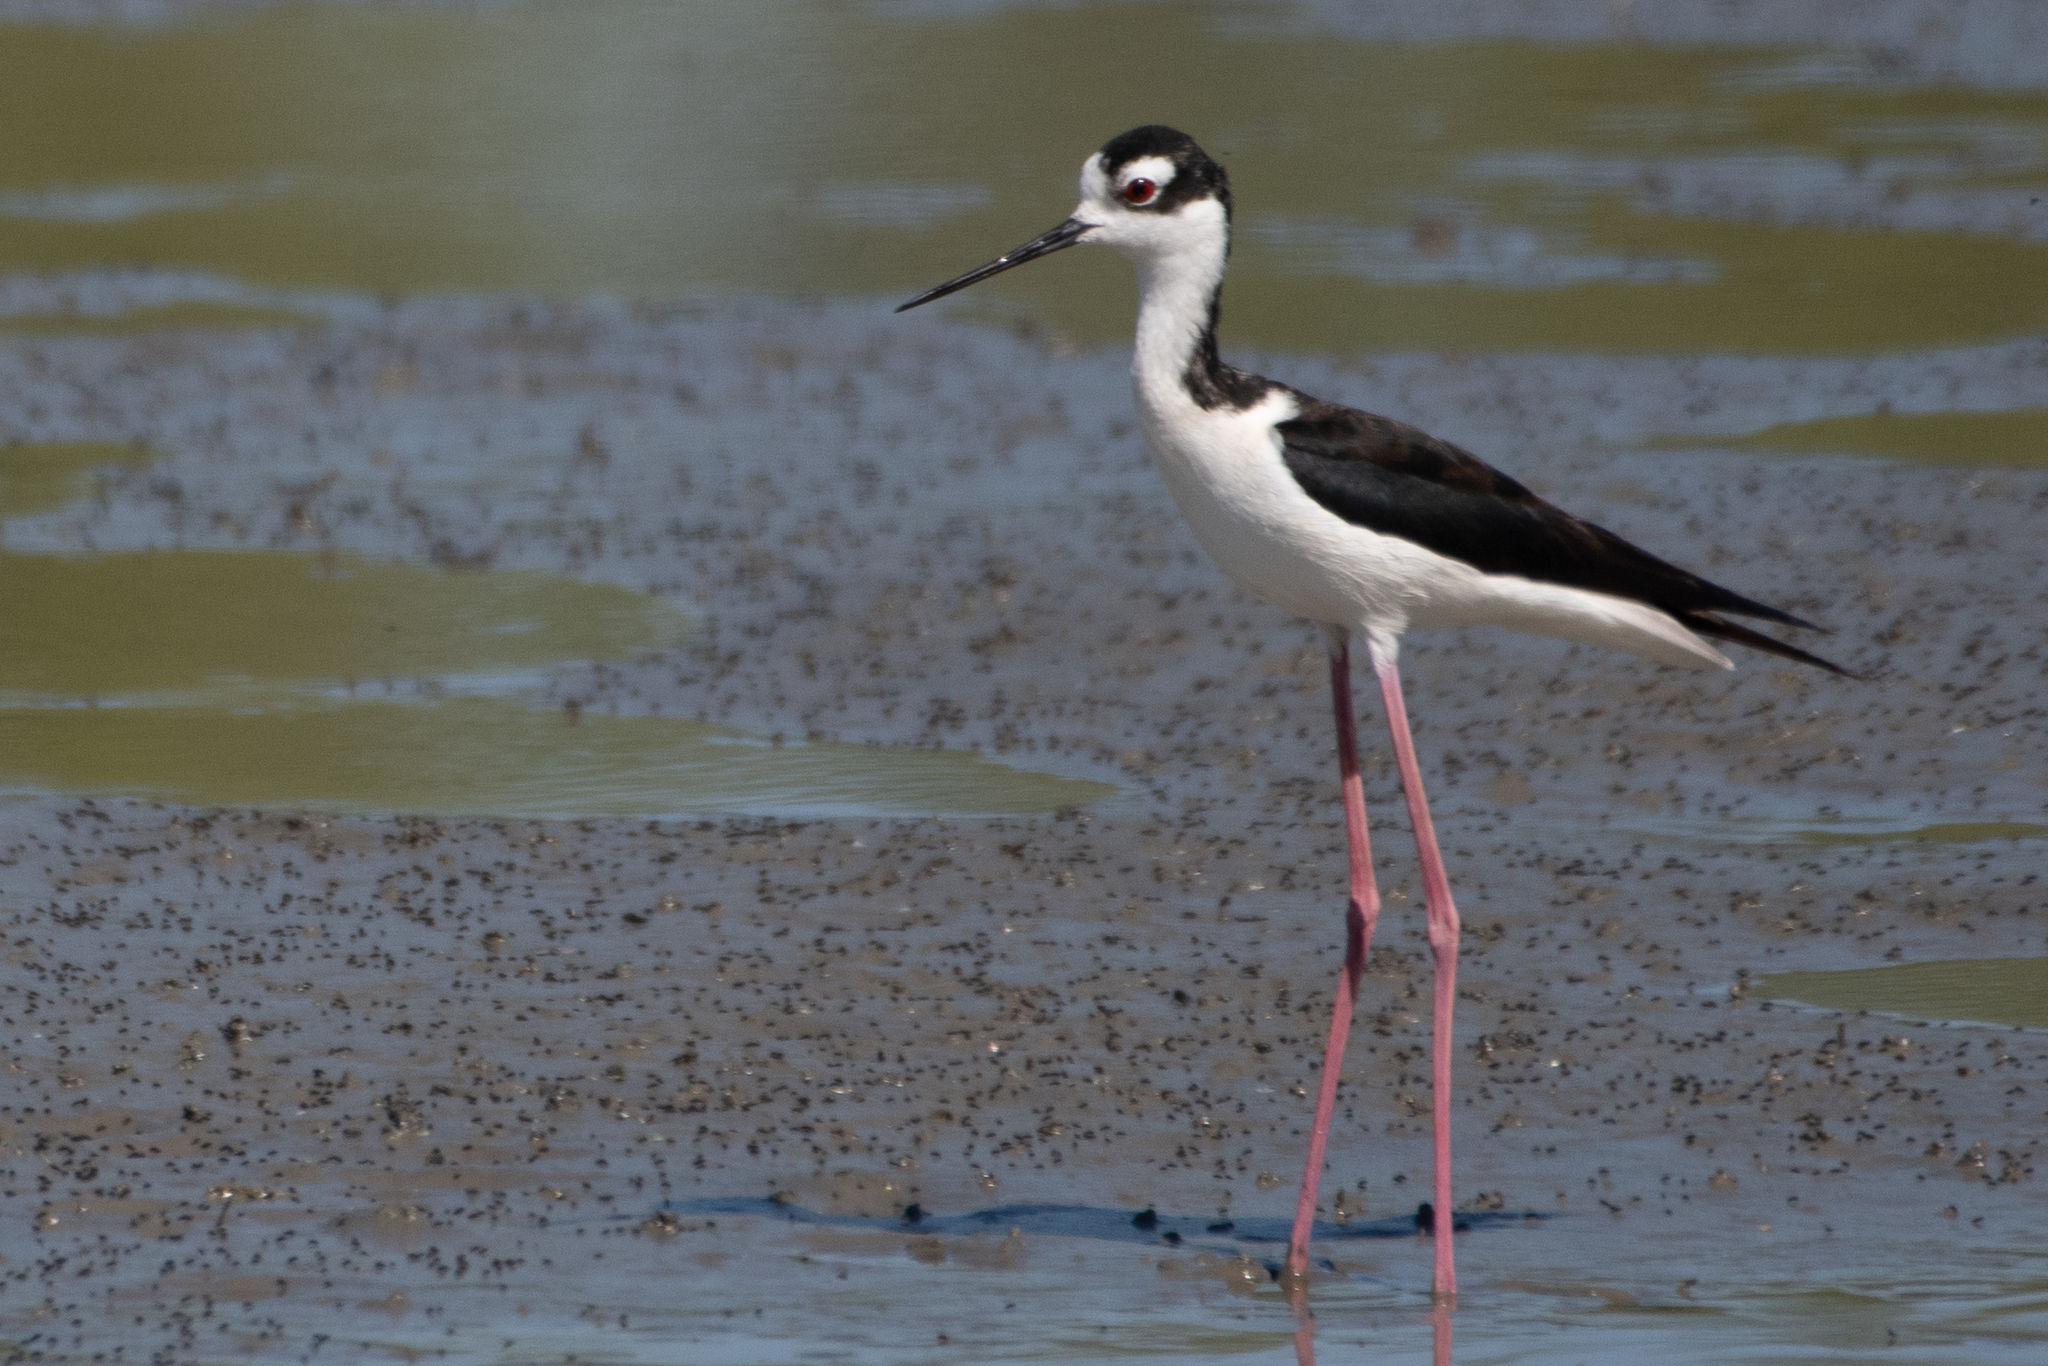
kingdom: Animalia
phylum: Chordata
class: Aves
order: Charadriiformes
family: Recurvirostridae
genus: Himantopus
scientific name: Himantopus mexicanus
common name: Black-necked stilt
